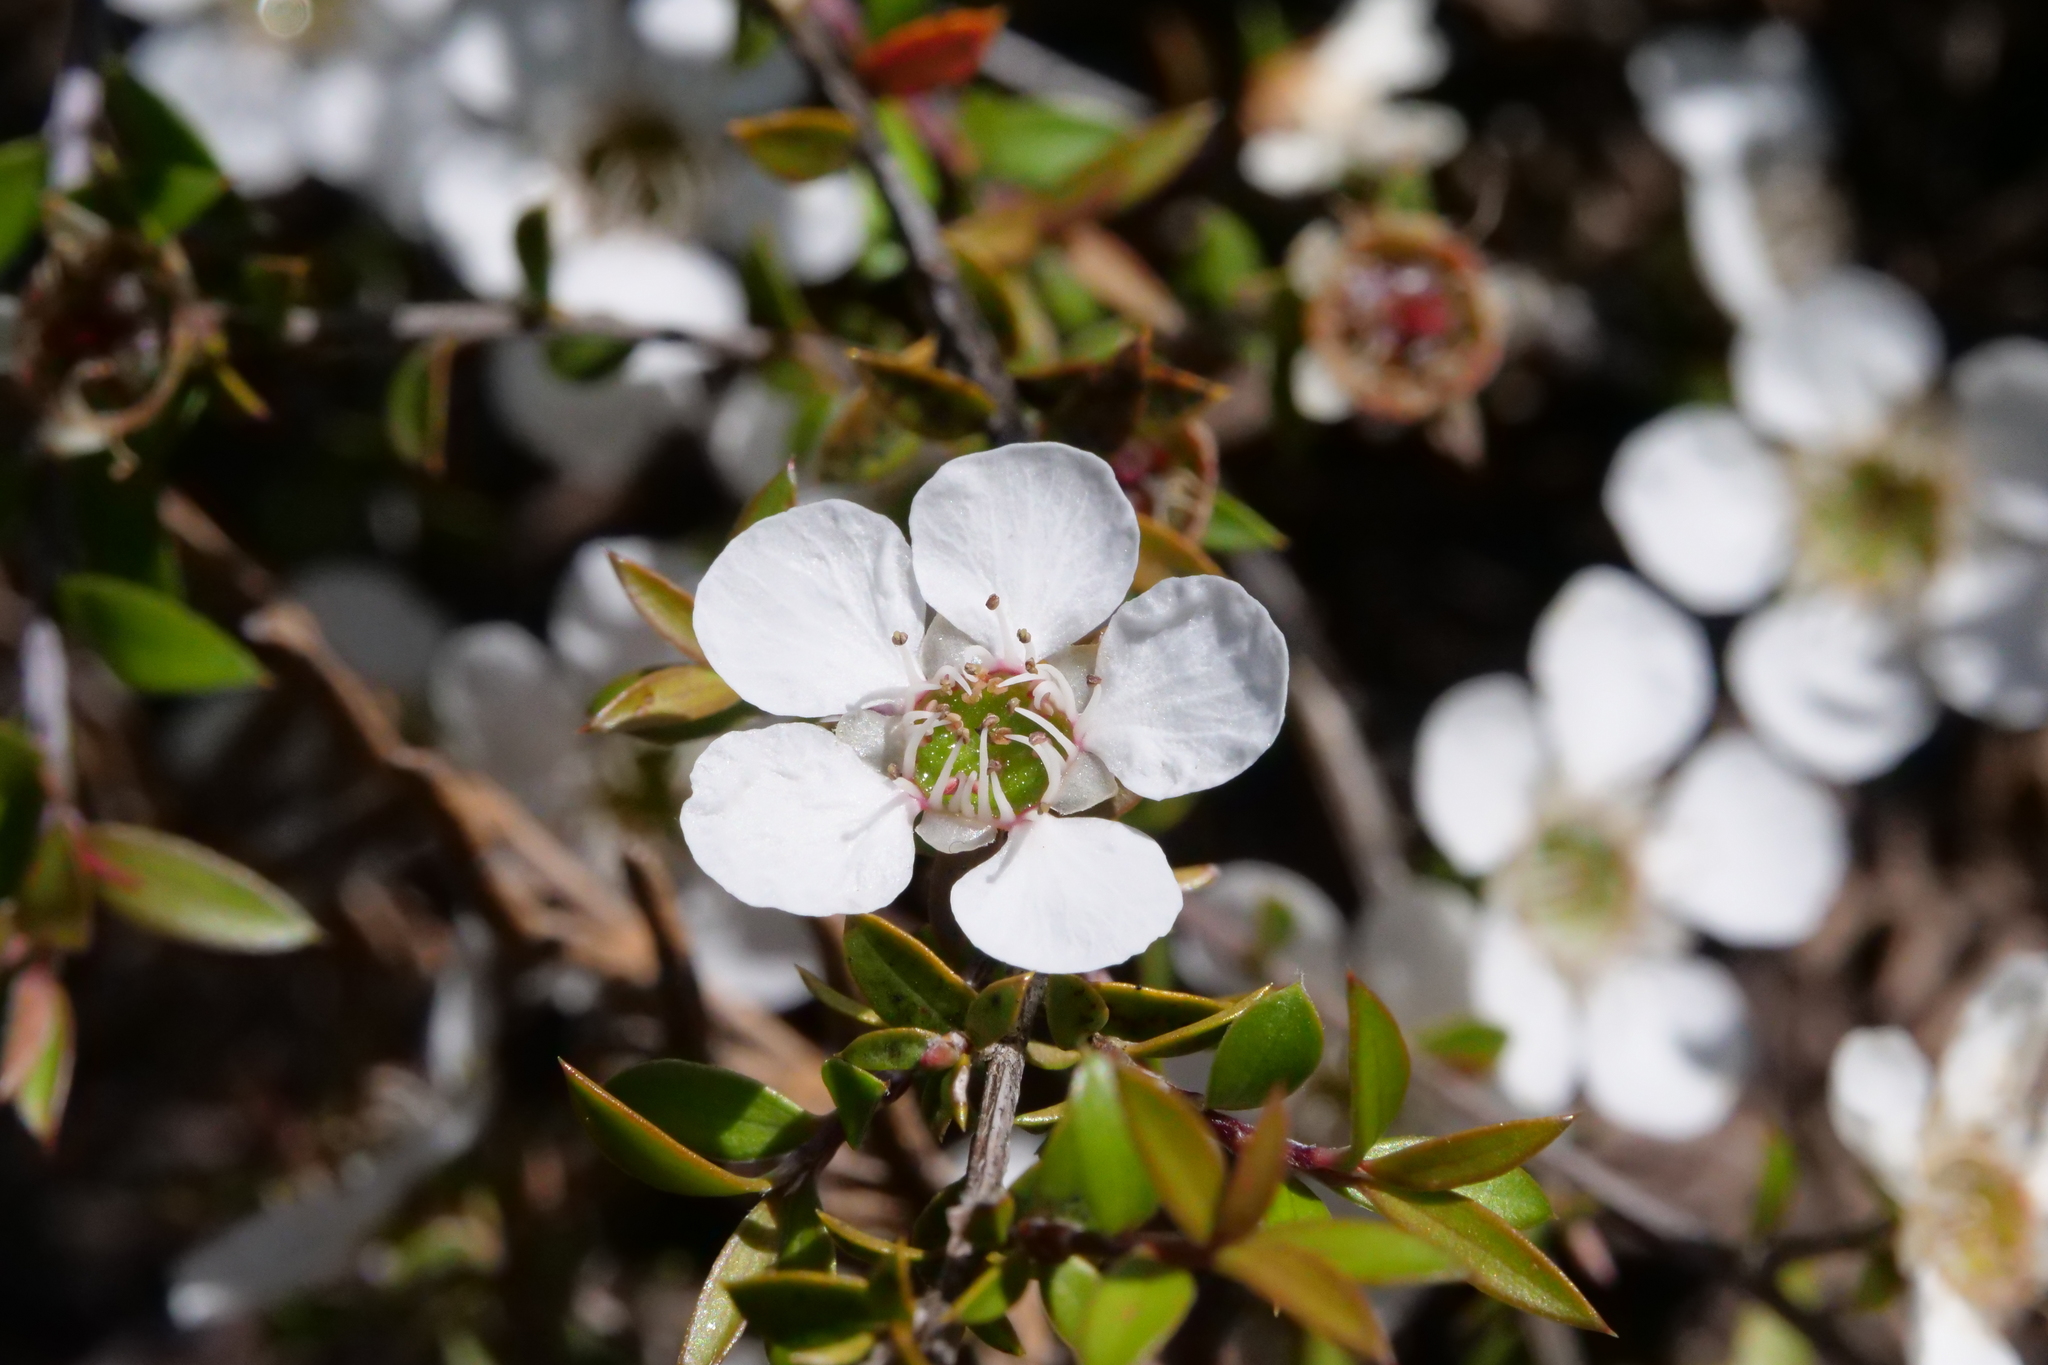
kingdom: Plantae
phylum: Tracheophyta
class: Magnoliopsida
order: Myrtales
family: Myrtaceae
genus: Leptospermum
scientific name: Leptospermum scoparium
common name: Broom tea-tree
